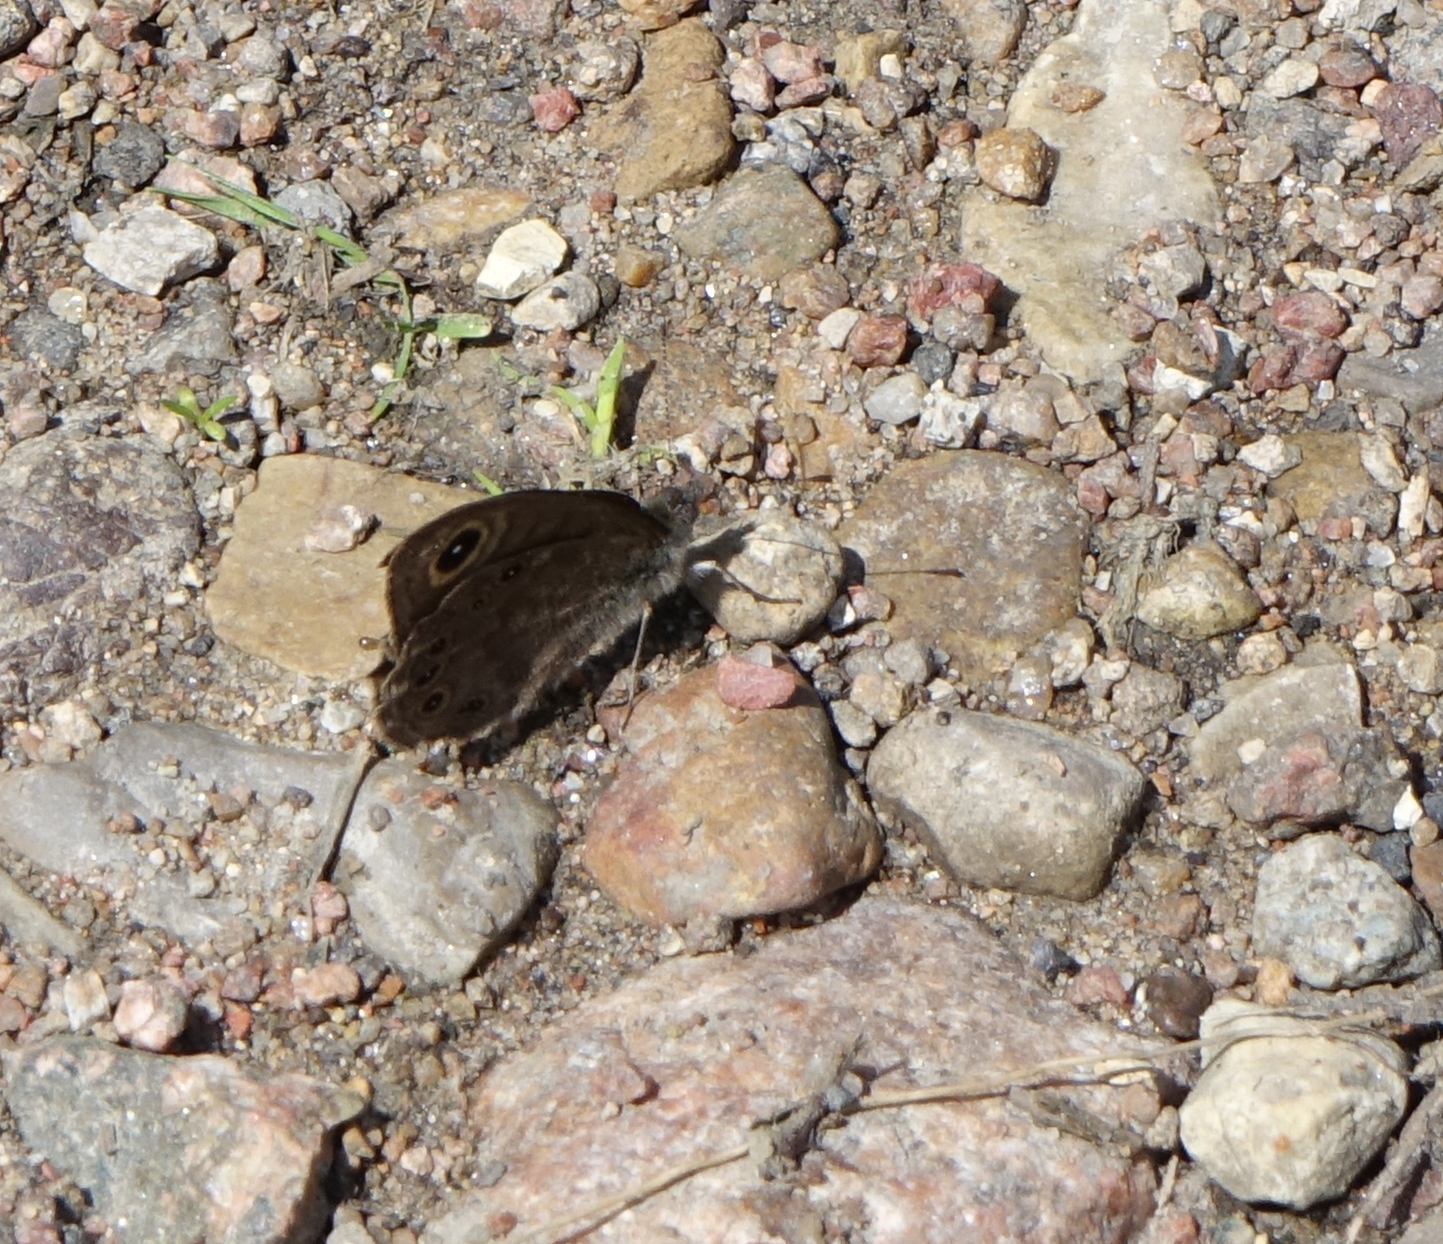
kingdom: Animalia
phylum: Arthropoda
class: Insecta
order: Lepidoptera
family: Nymphalidae
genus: Pararge
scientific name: Pararge petropolitana
